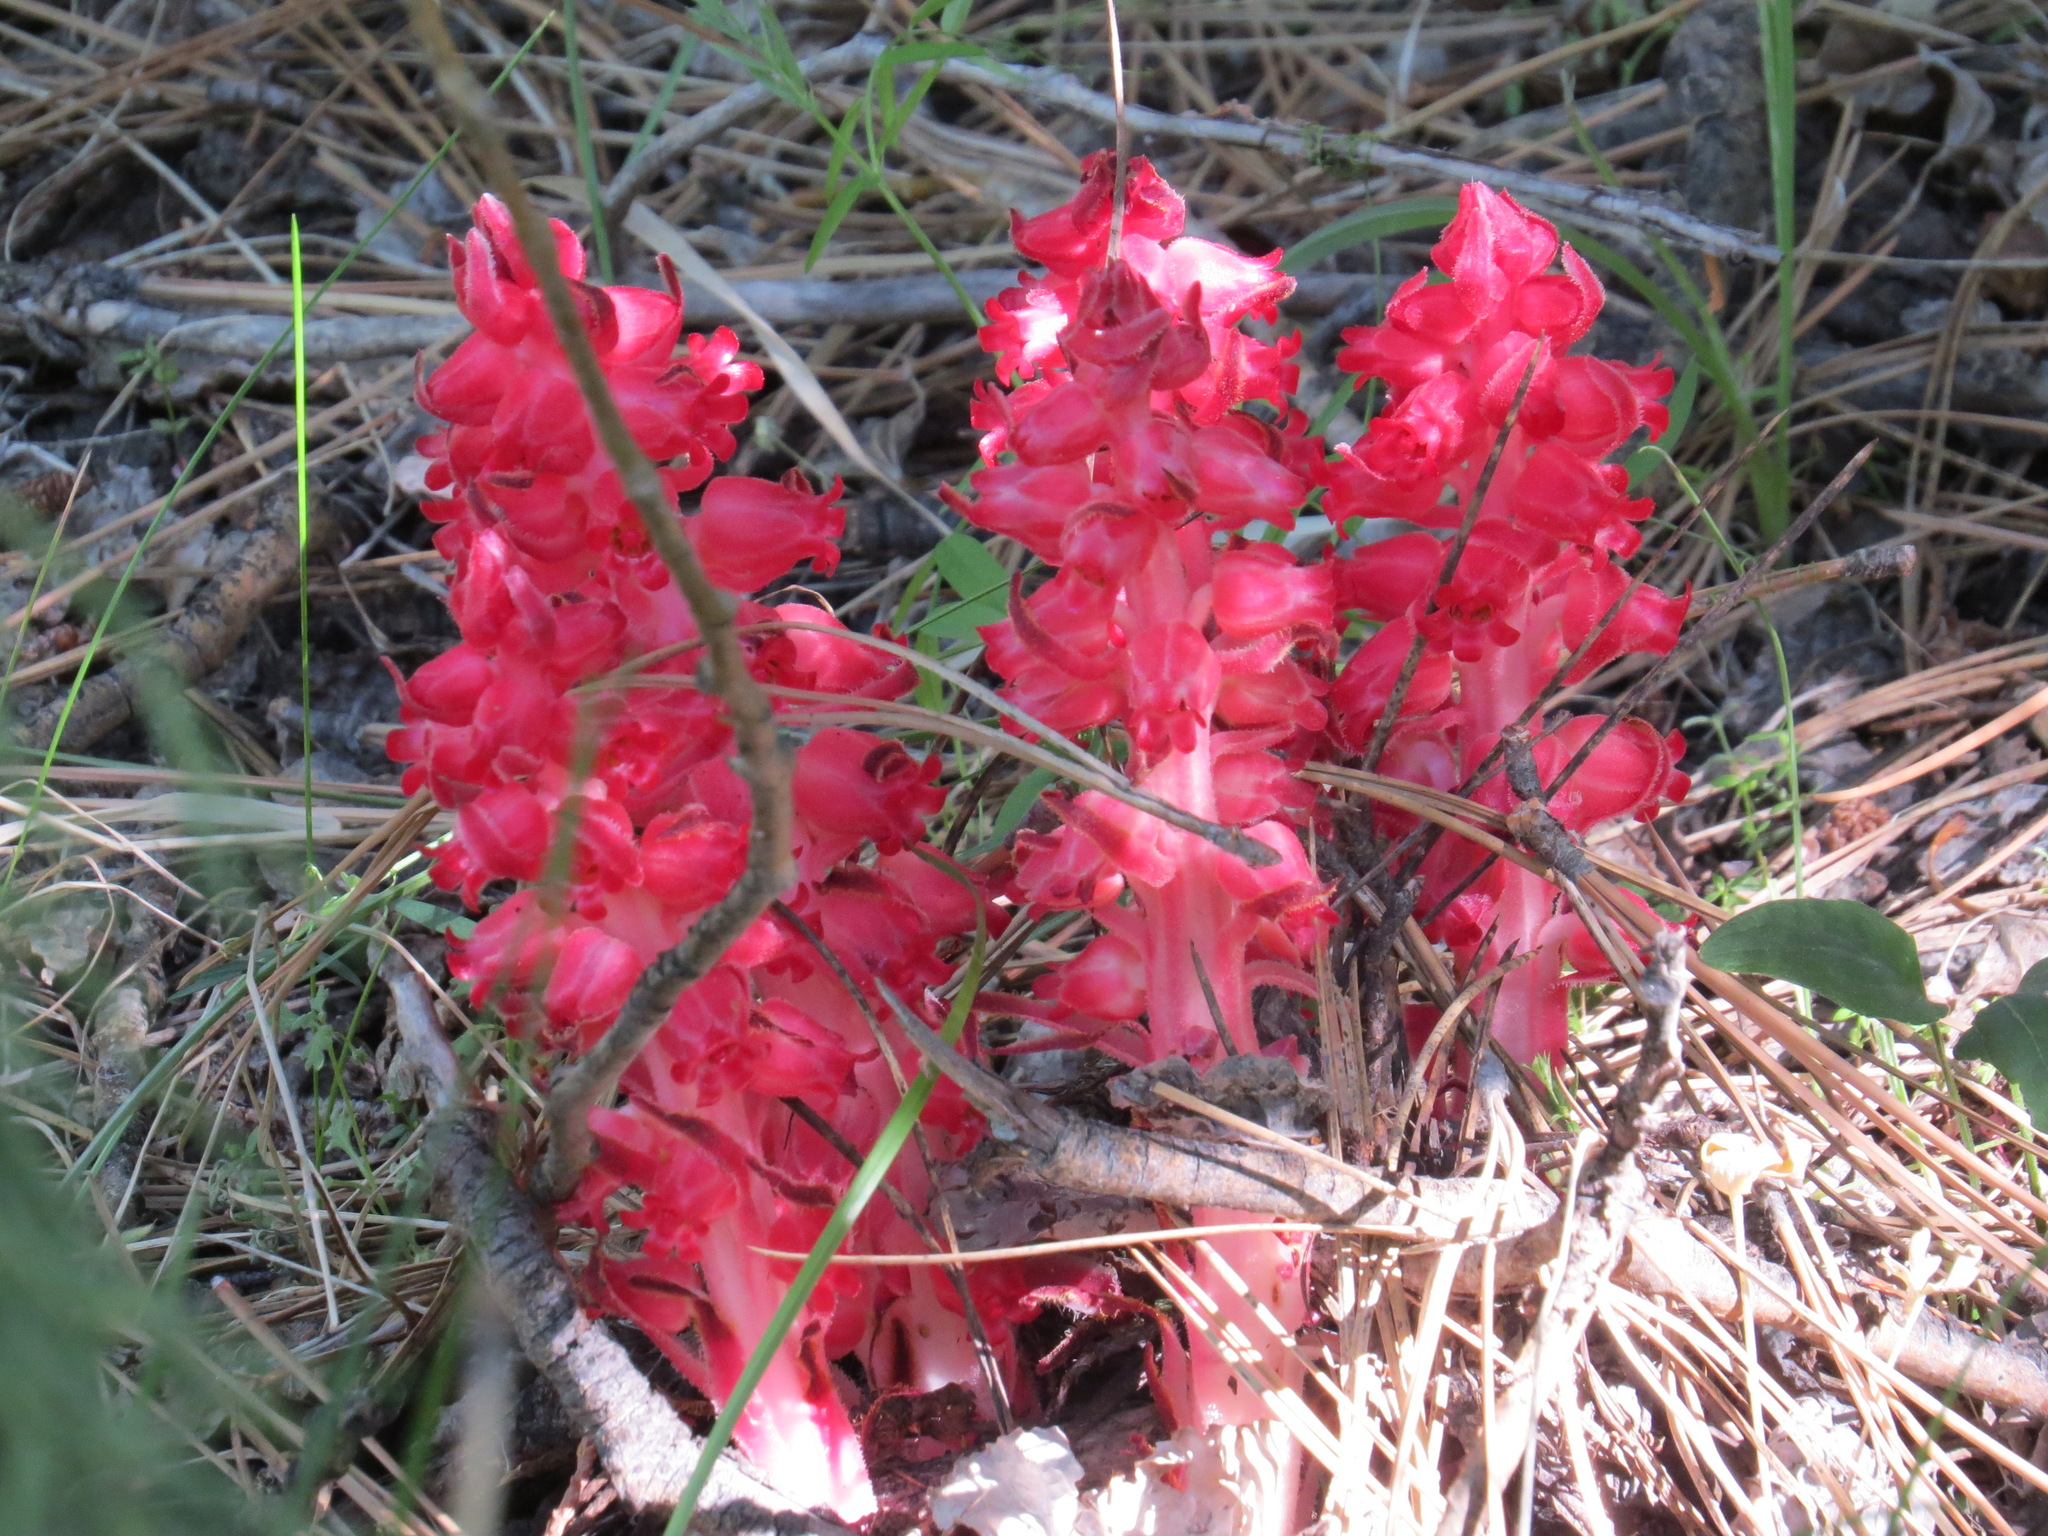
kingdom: Plantae
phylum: Tracheophyta
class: Magnoliopsida
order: Ericales
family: Ericaceae
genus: Sarcodes
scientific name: Sarcodes sanguinea
